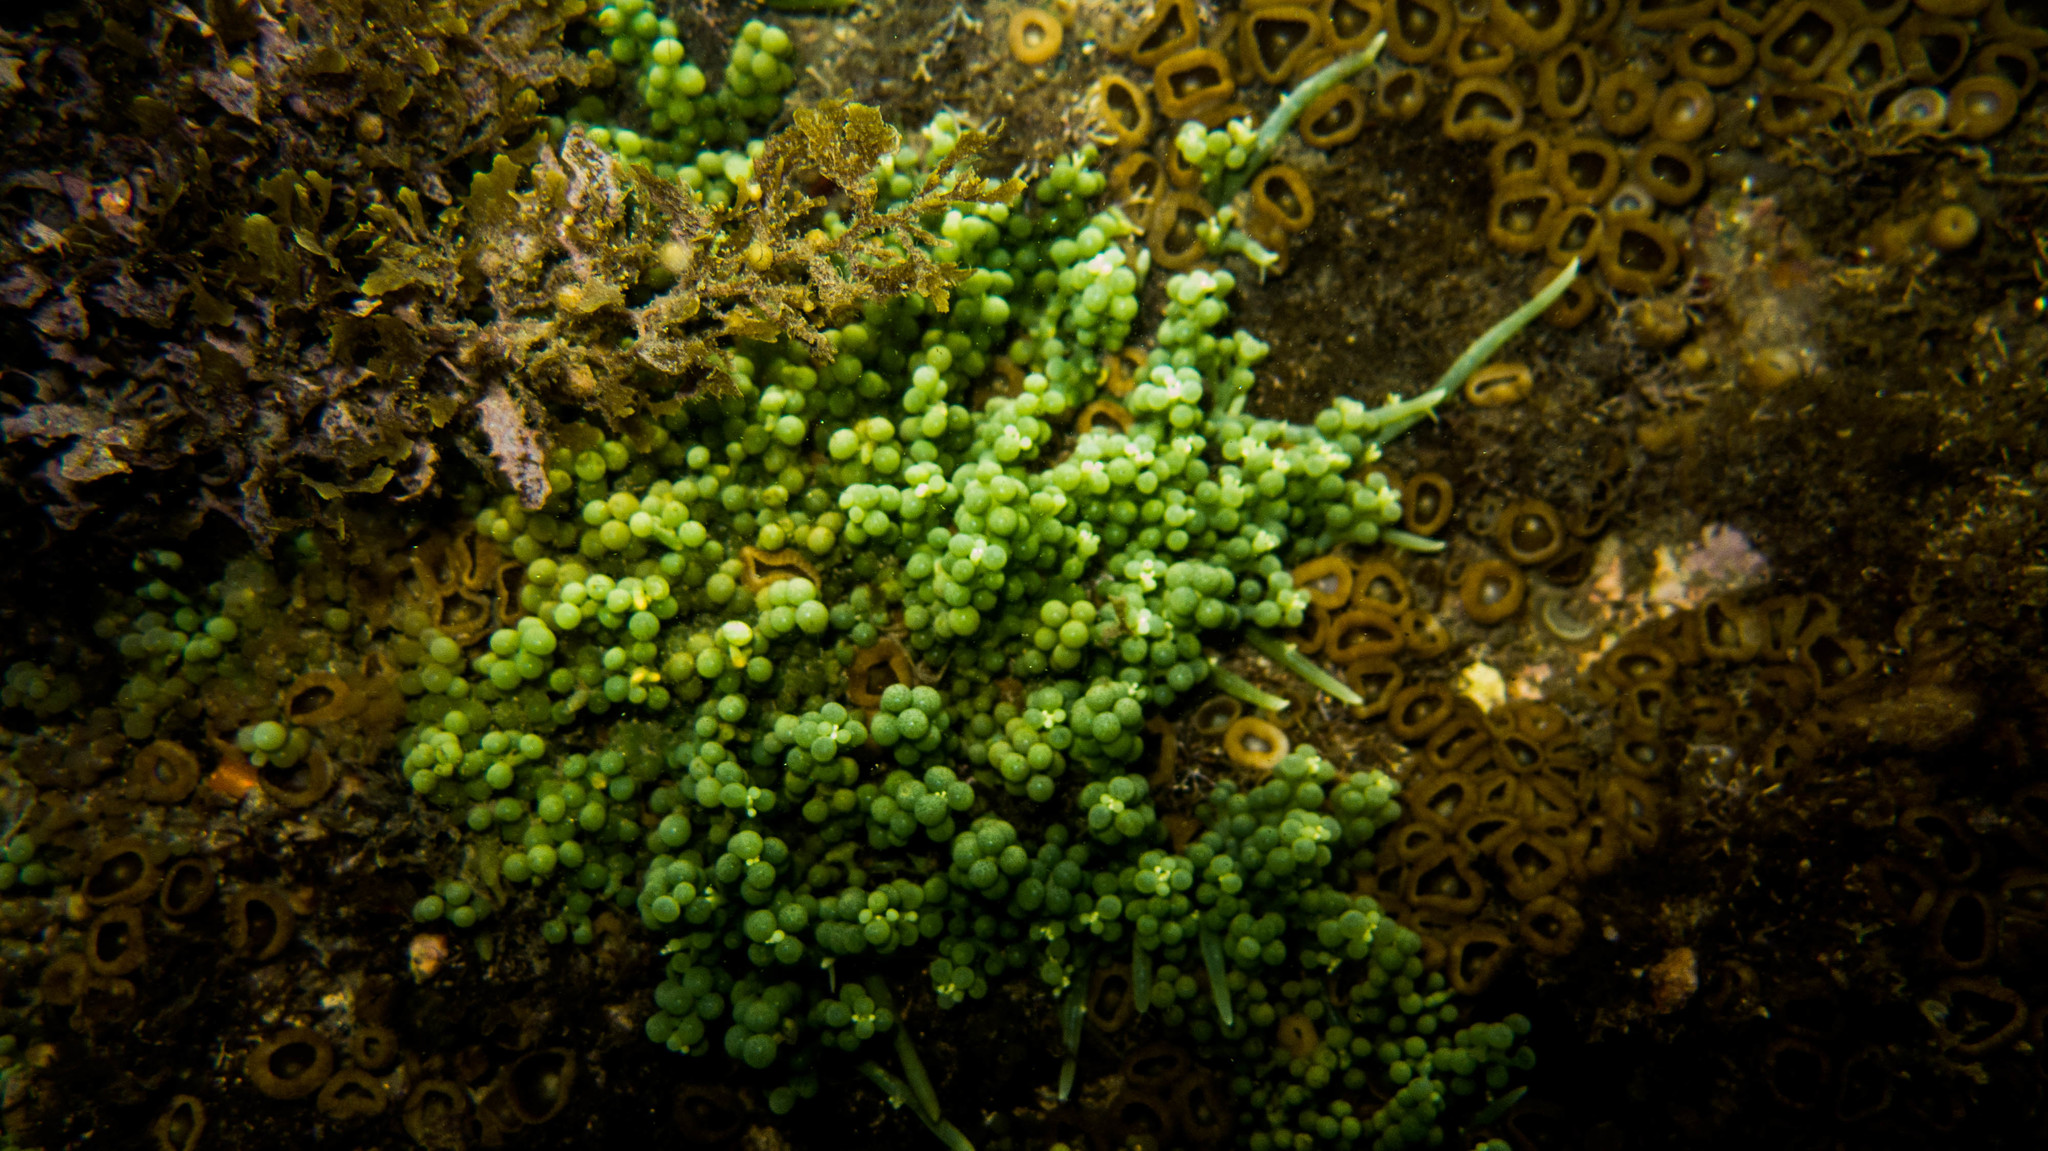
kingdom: Plantae
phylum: Chlorophyta
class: Ulvophyceae
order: Bryopsidales
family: Caulerpaceae
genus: Caulerpa
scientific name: Caulerpa racemosa
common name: Green grape algae
